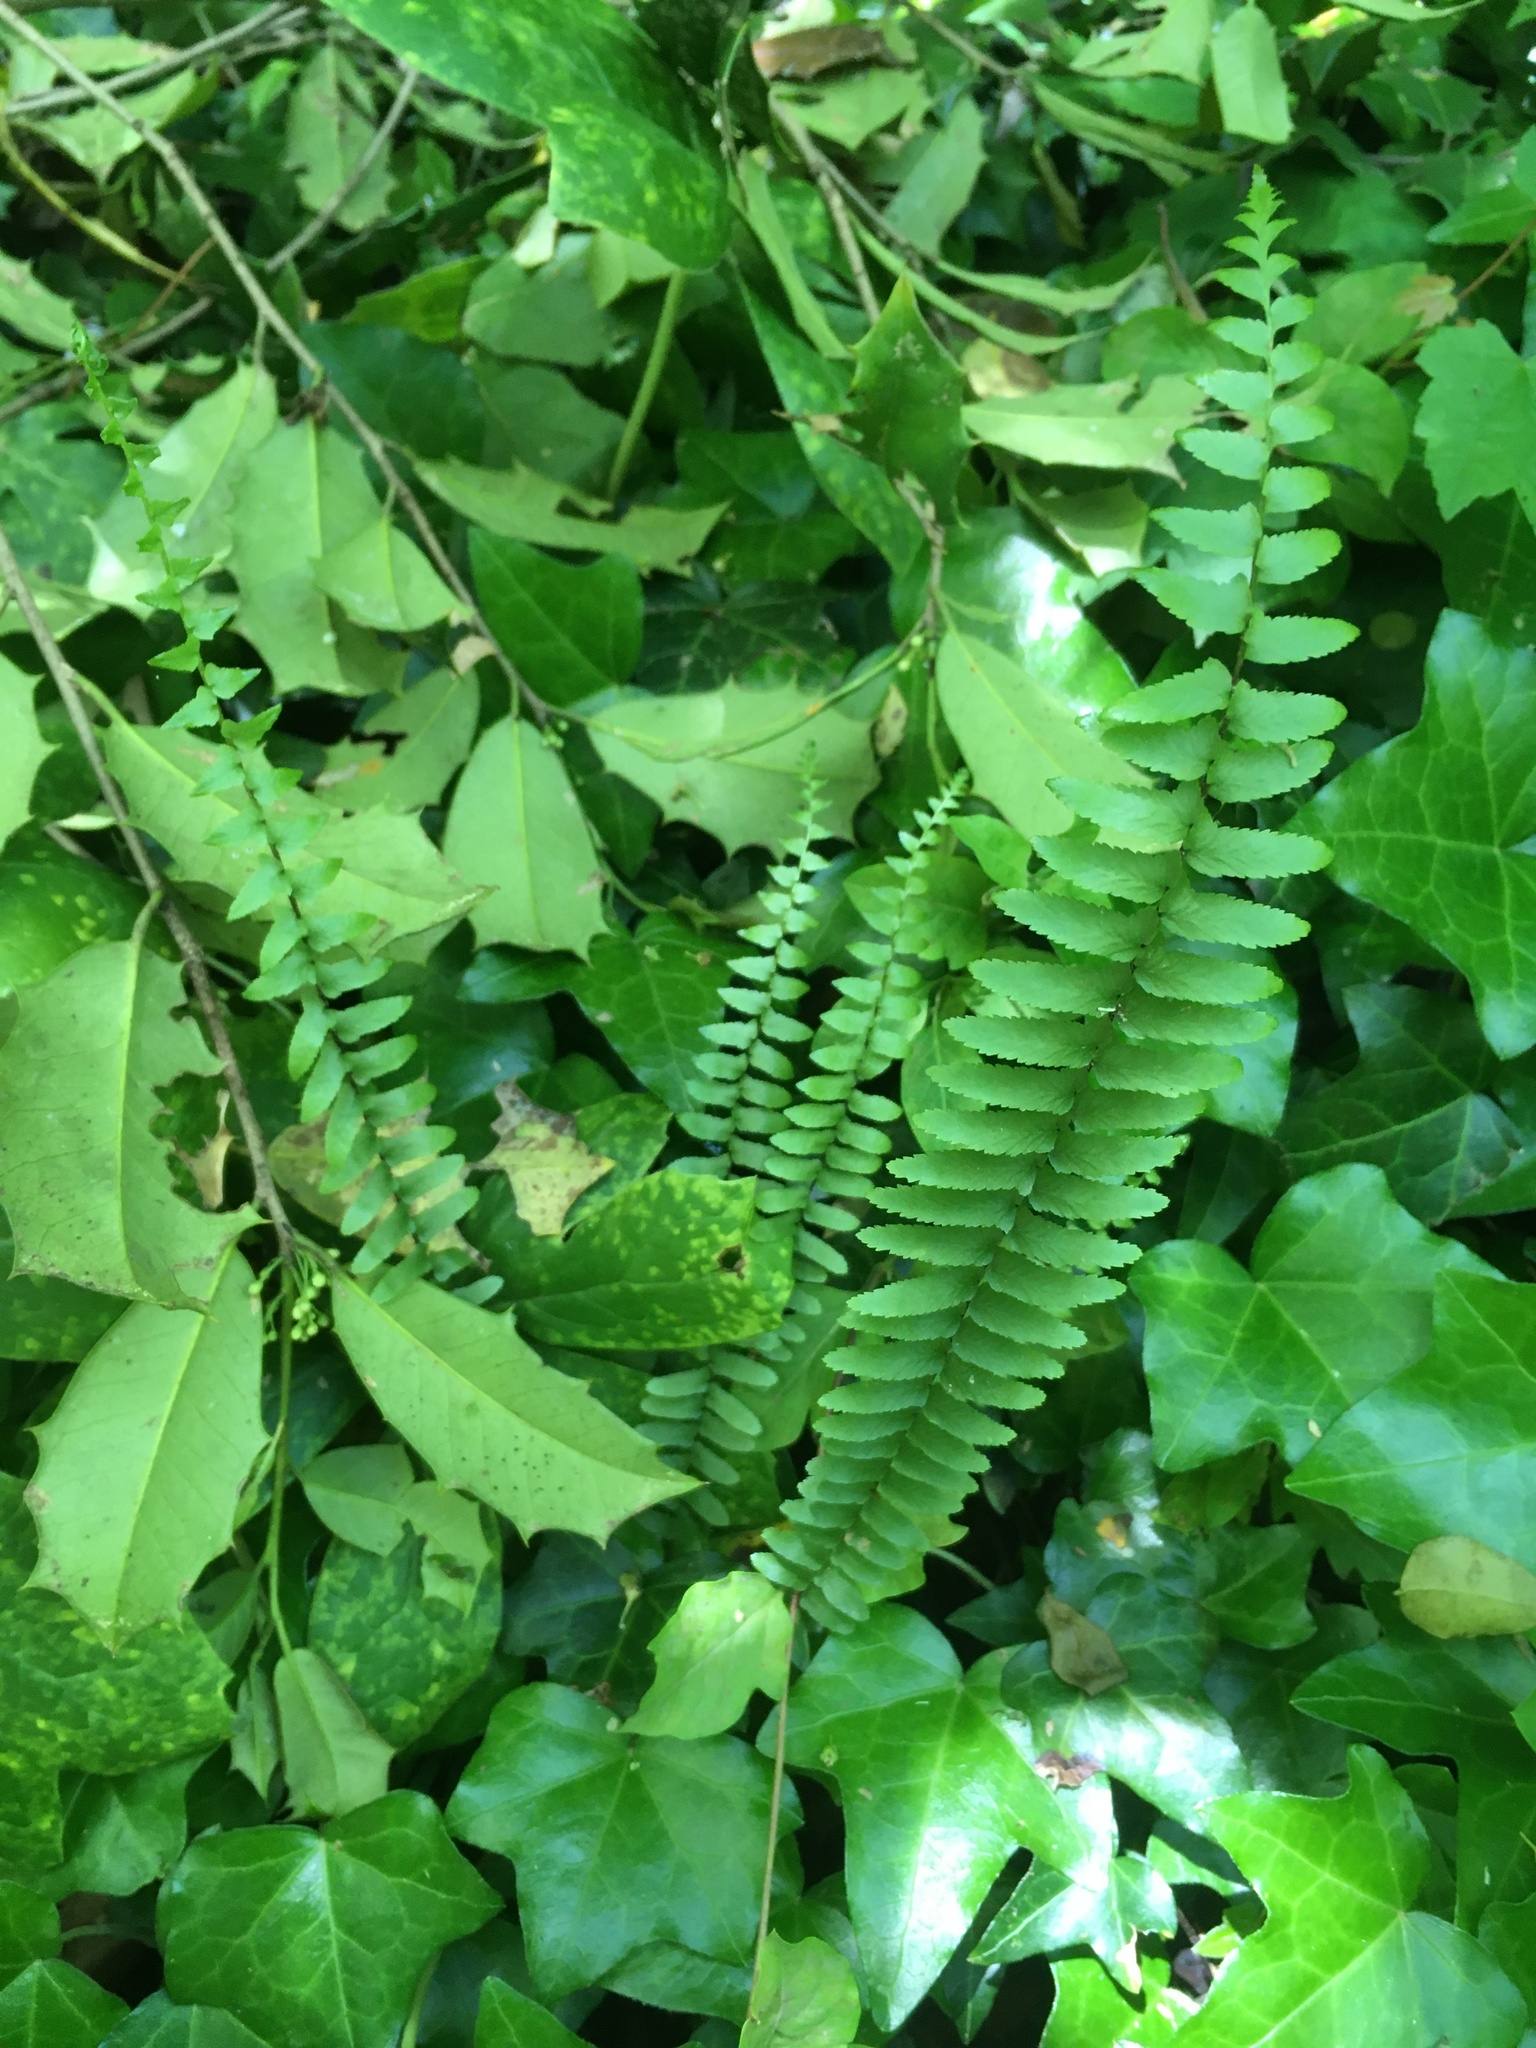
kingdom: Plantae
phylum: Tracheophyta
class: Polypodiopsida
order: Polypodiales
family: Aspleniaceae
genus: Asplenium
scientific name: Asplenium platyneuron
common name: Ebony spleenwort
